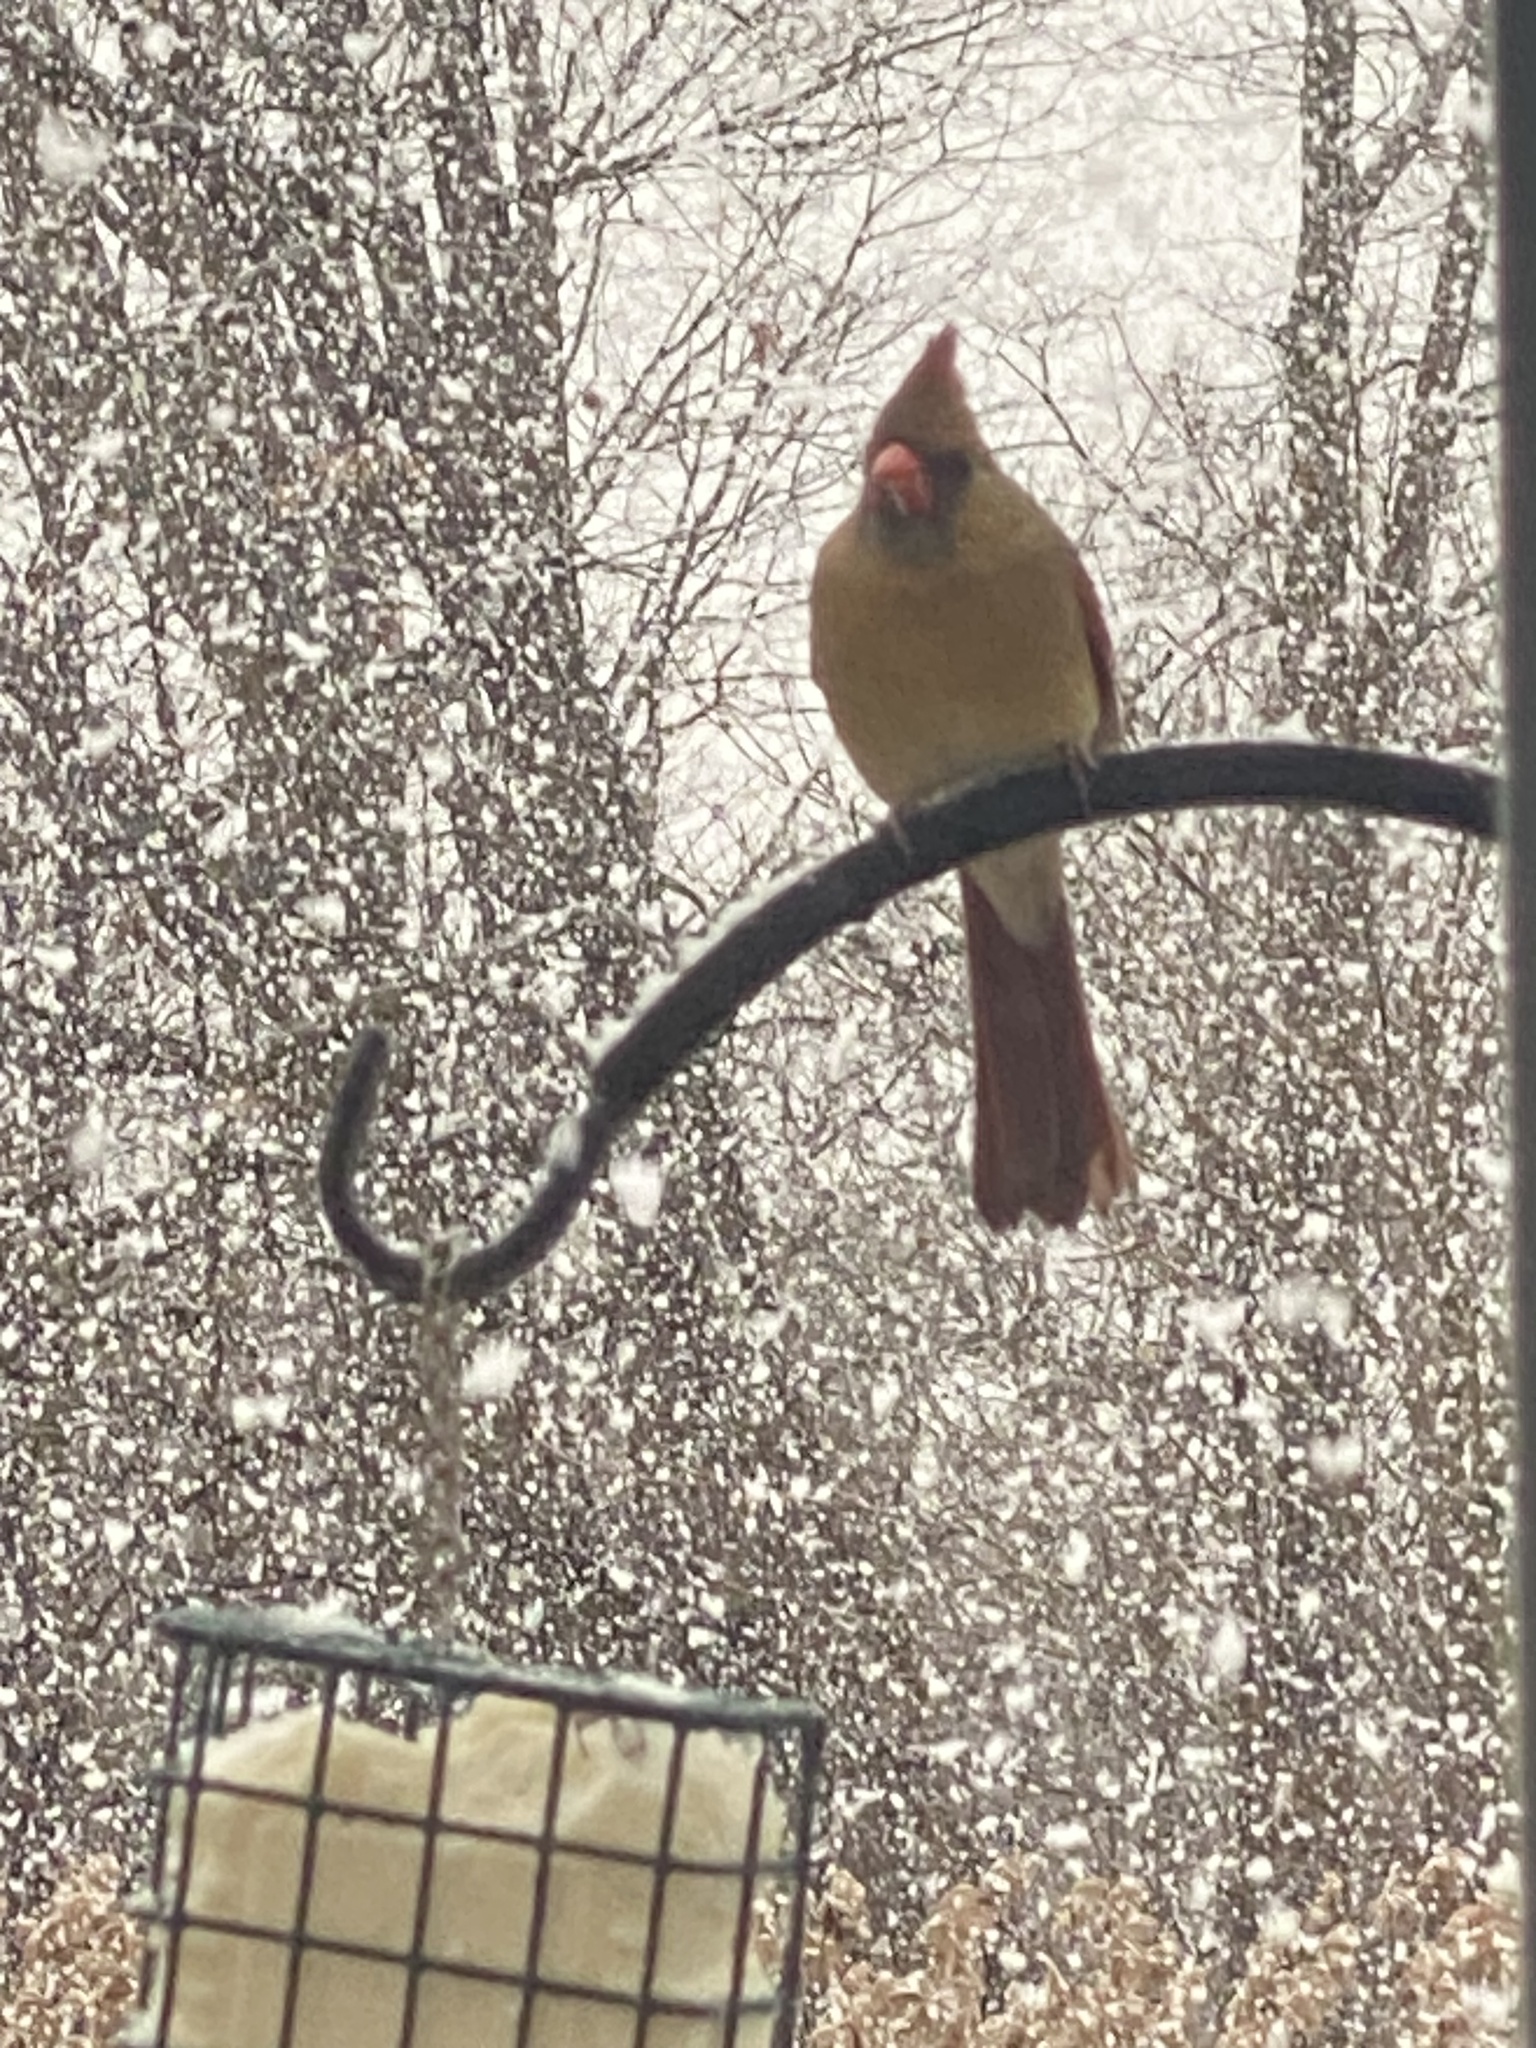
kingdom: Animalia
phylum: Chordata
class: Aves
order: Passeriformes
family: Cardinalidae
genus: Cardinalis
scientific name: Cardinalis cardinalis
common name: Northern cardinal
